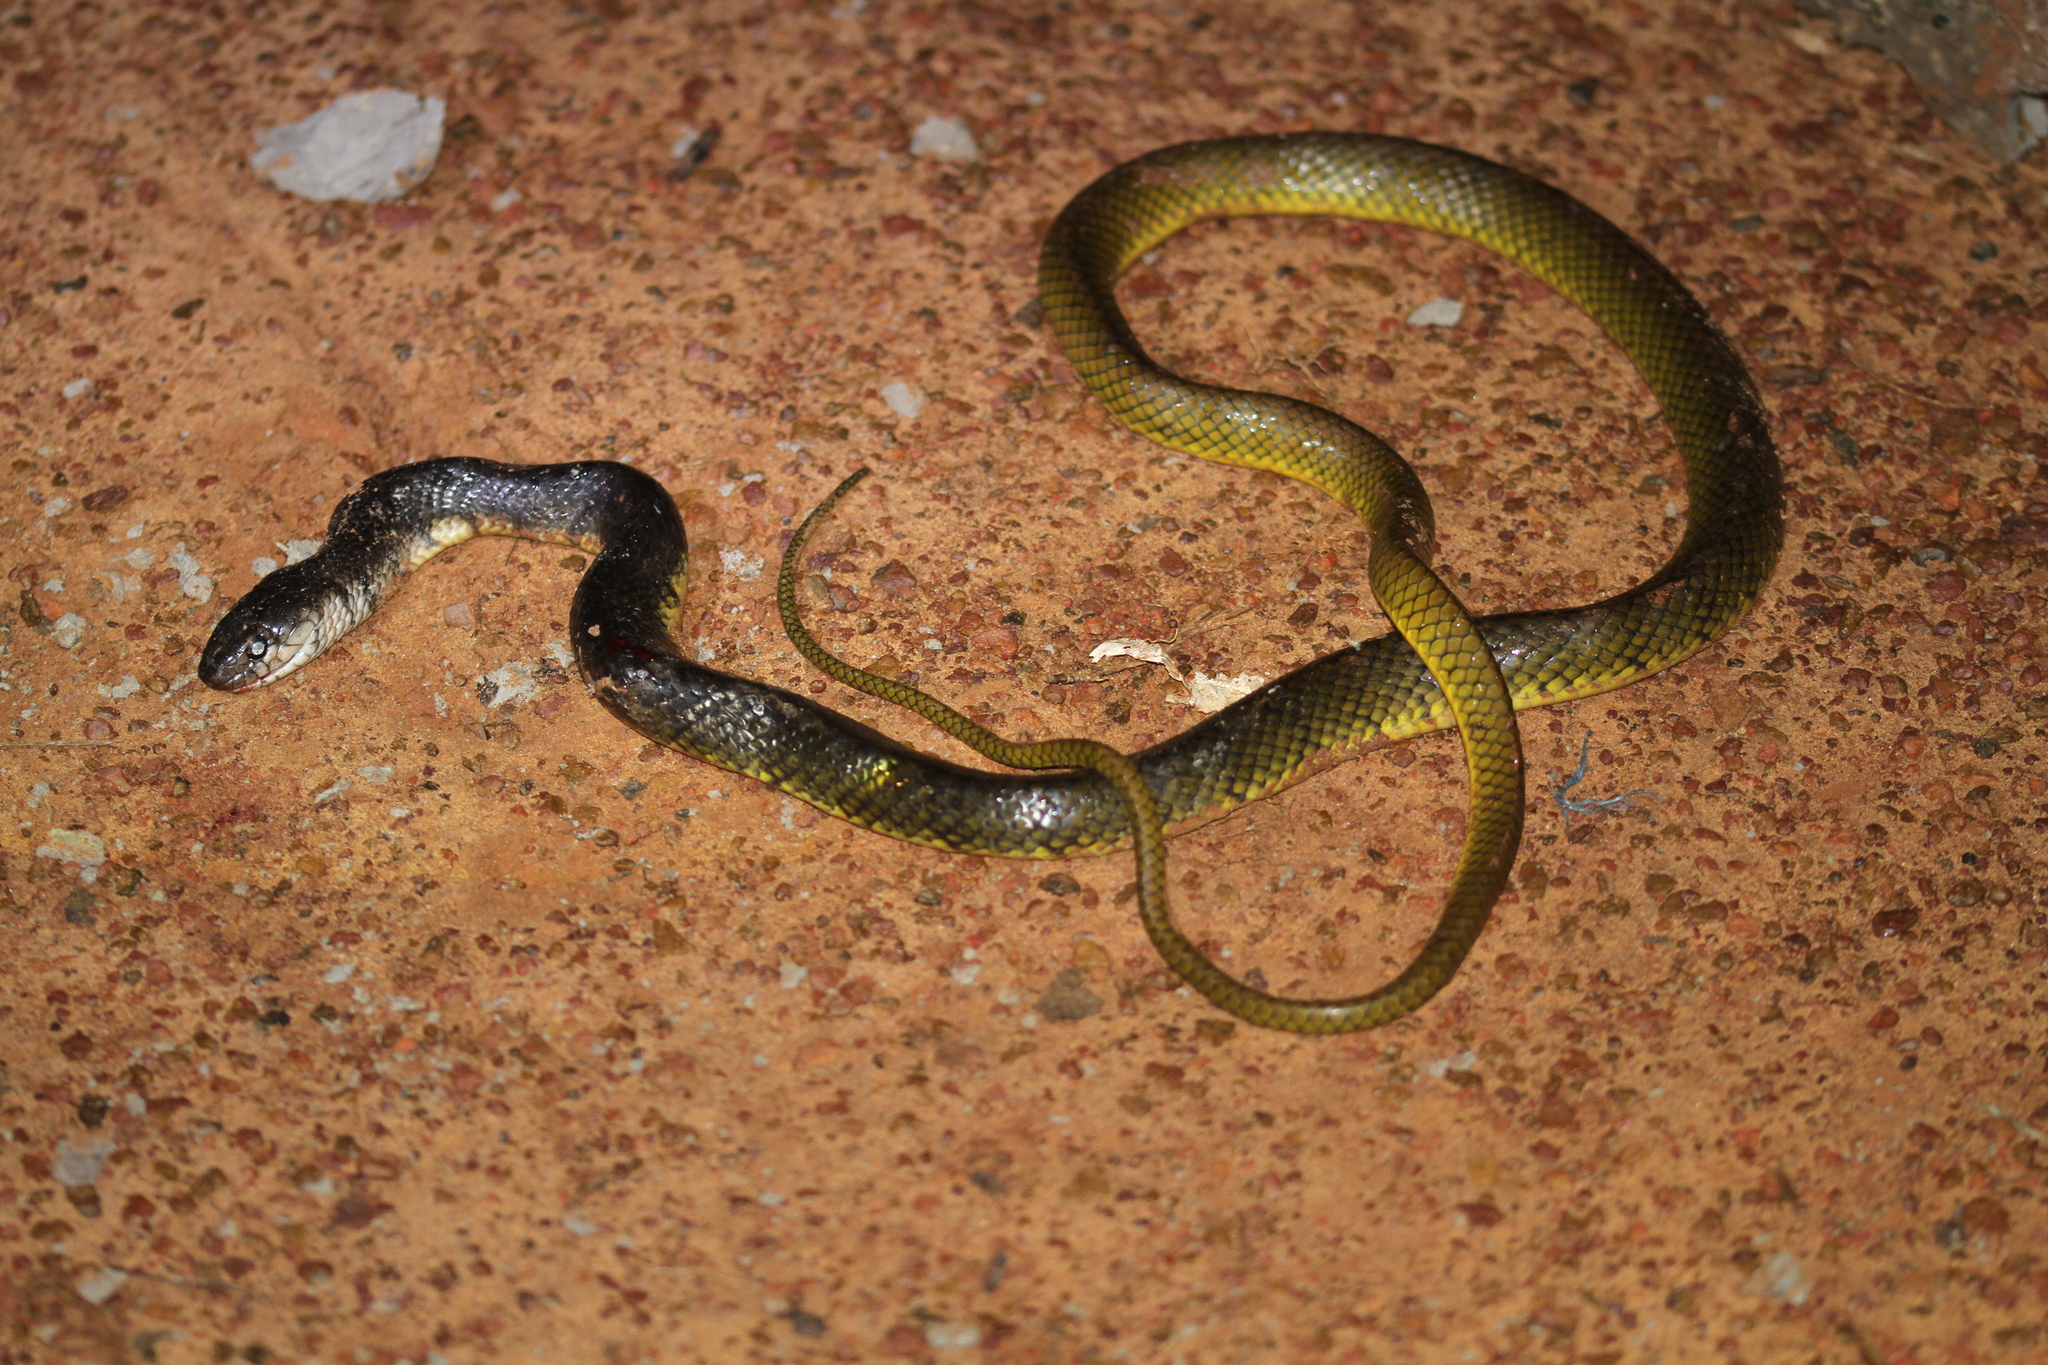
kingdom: Animalia
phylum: Chordata
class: Squamata
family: Colubridae
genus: Xenelaphis
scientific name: Xenelaphis hexagonotus
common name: Malayan brown snake
